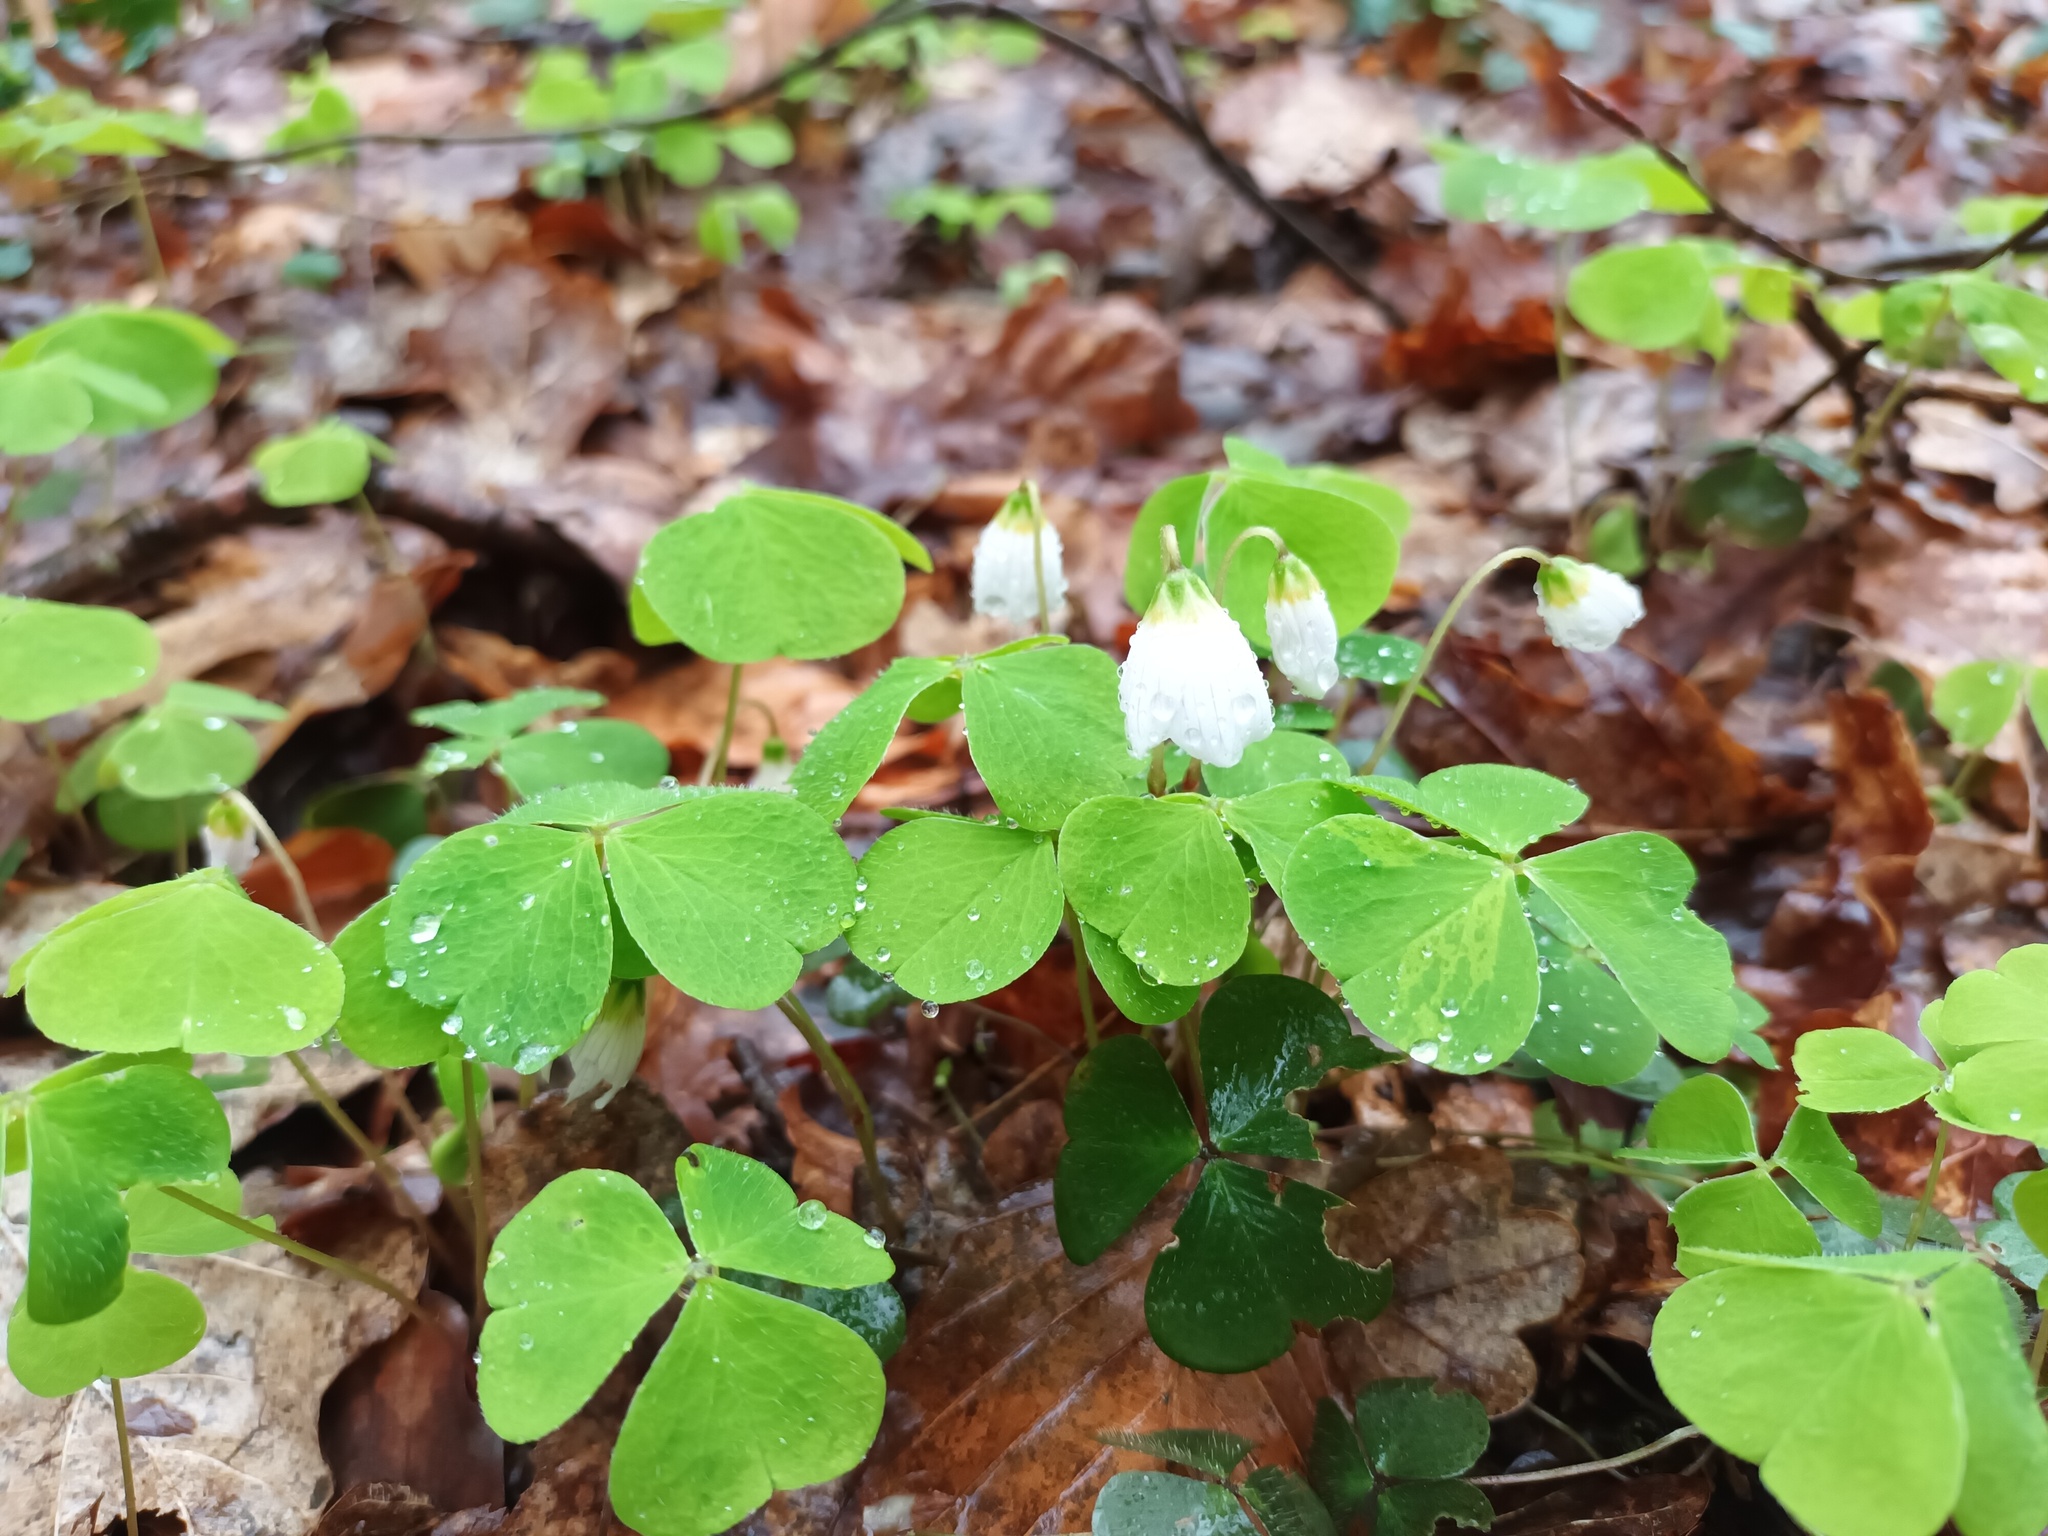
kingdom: Plantae
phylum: Tracheophyta
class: Magnoliopsida
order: Oxalidales
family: Oxalidaceae
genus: Oxalis
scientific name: Oxalis acetosella
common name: Wood-sorrel
